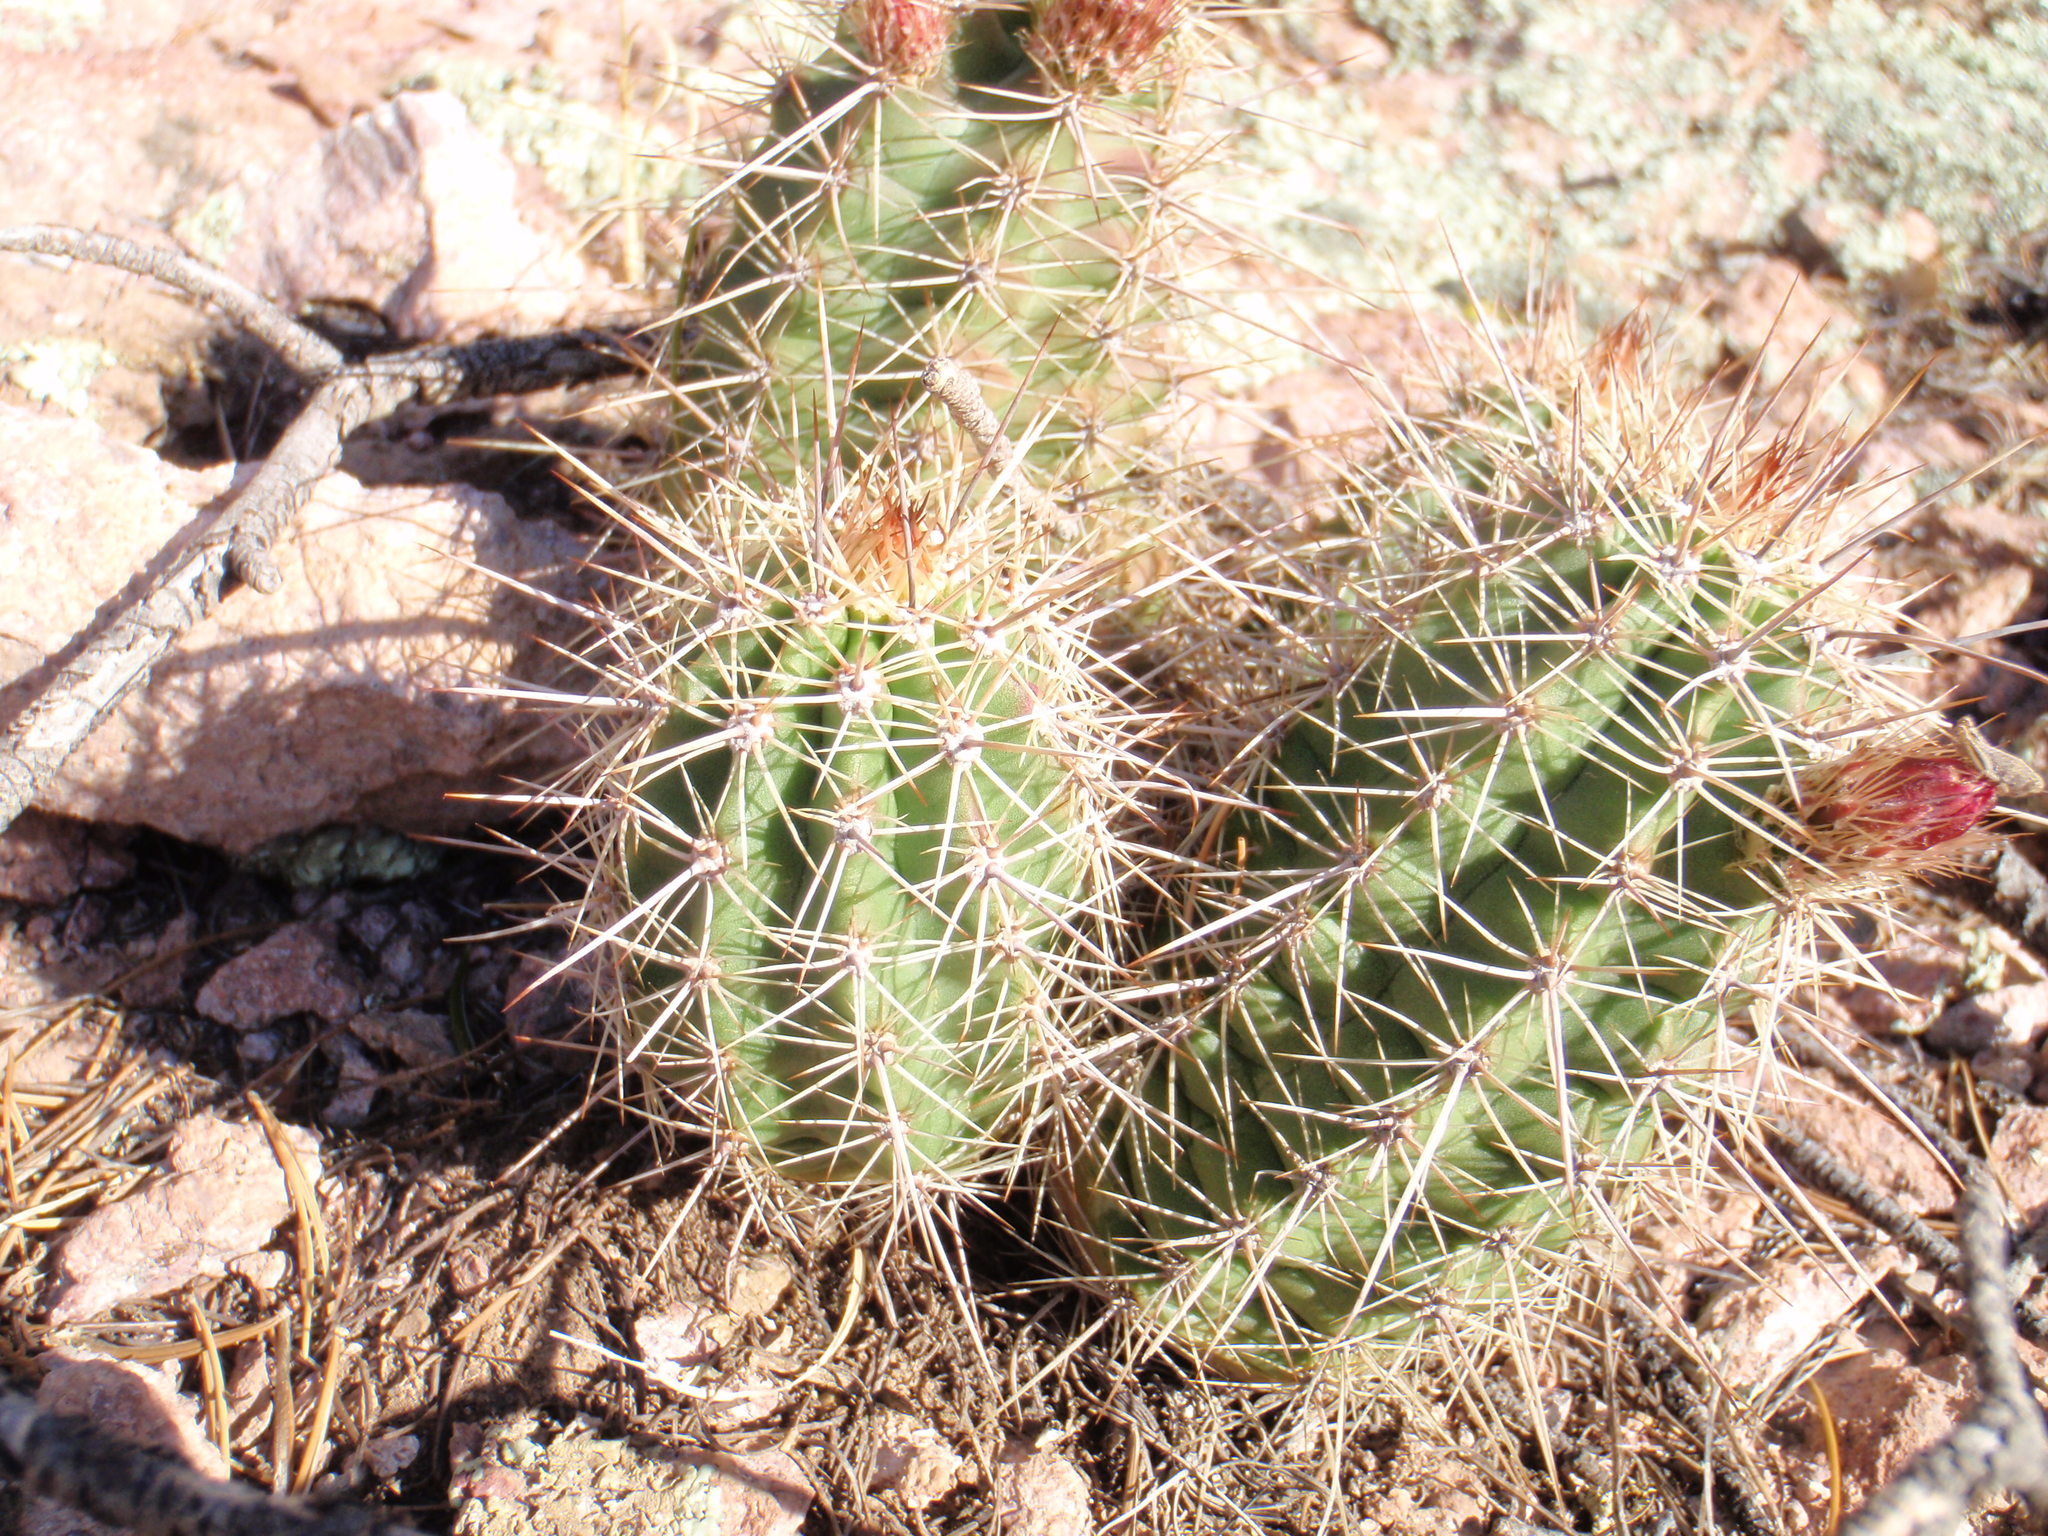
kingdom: Plantae
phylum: Tracheophyta
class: Magnoliopsida
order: Caryophyllales
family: Cactaceae
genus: Echinocereus
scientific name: Echinocereus coccineus
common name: Scarlet hedgehog cactus
